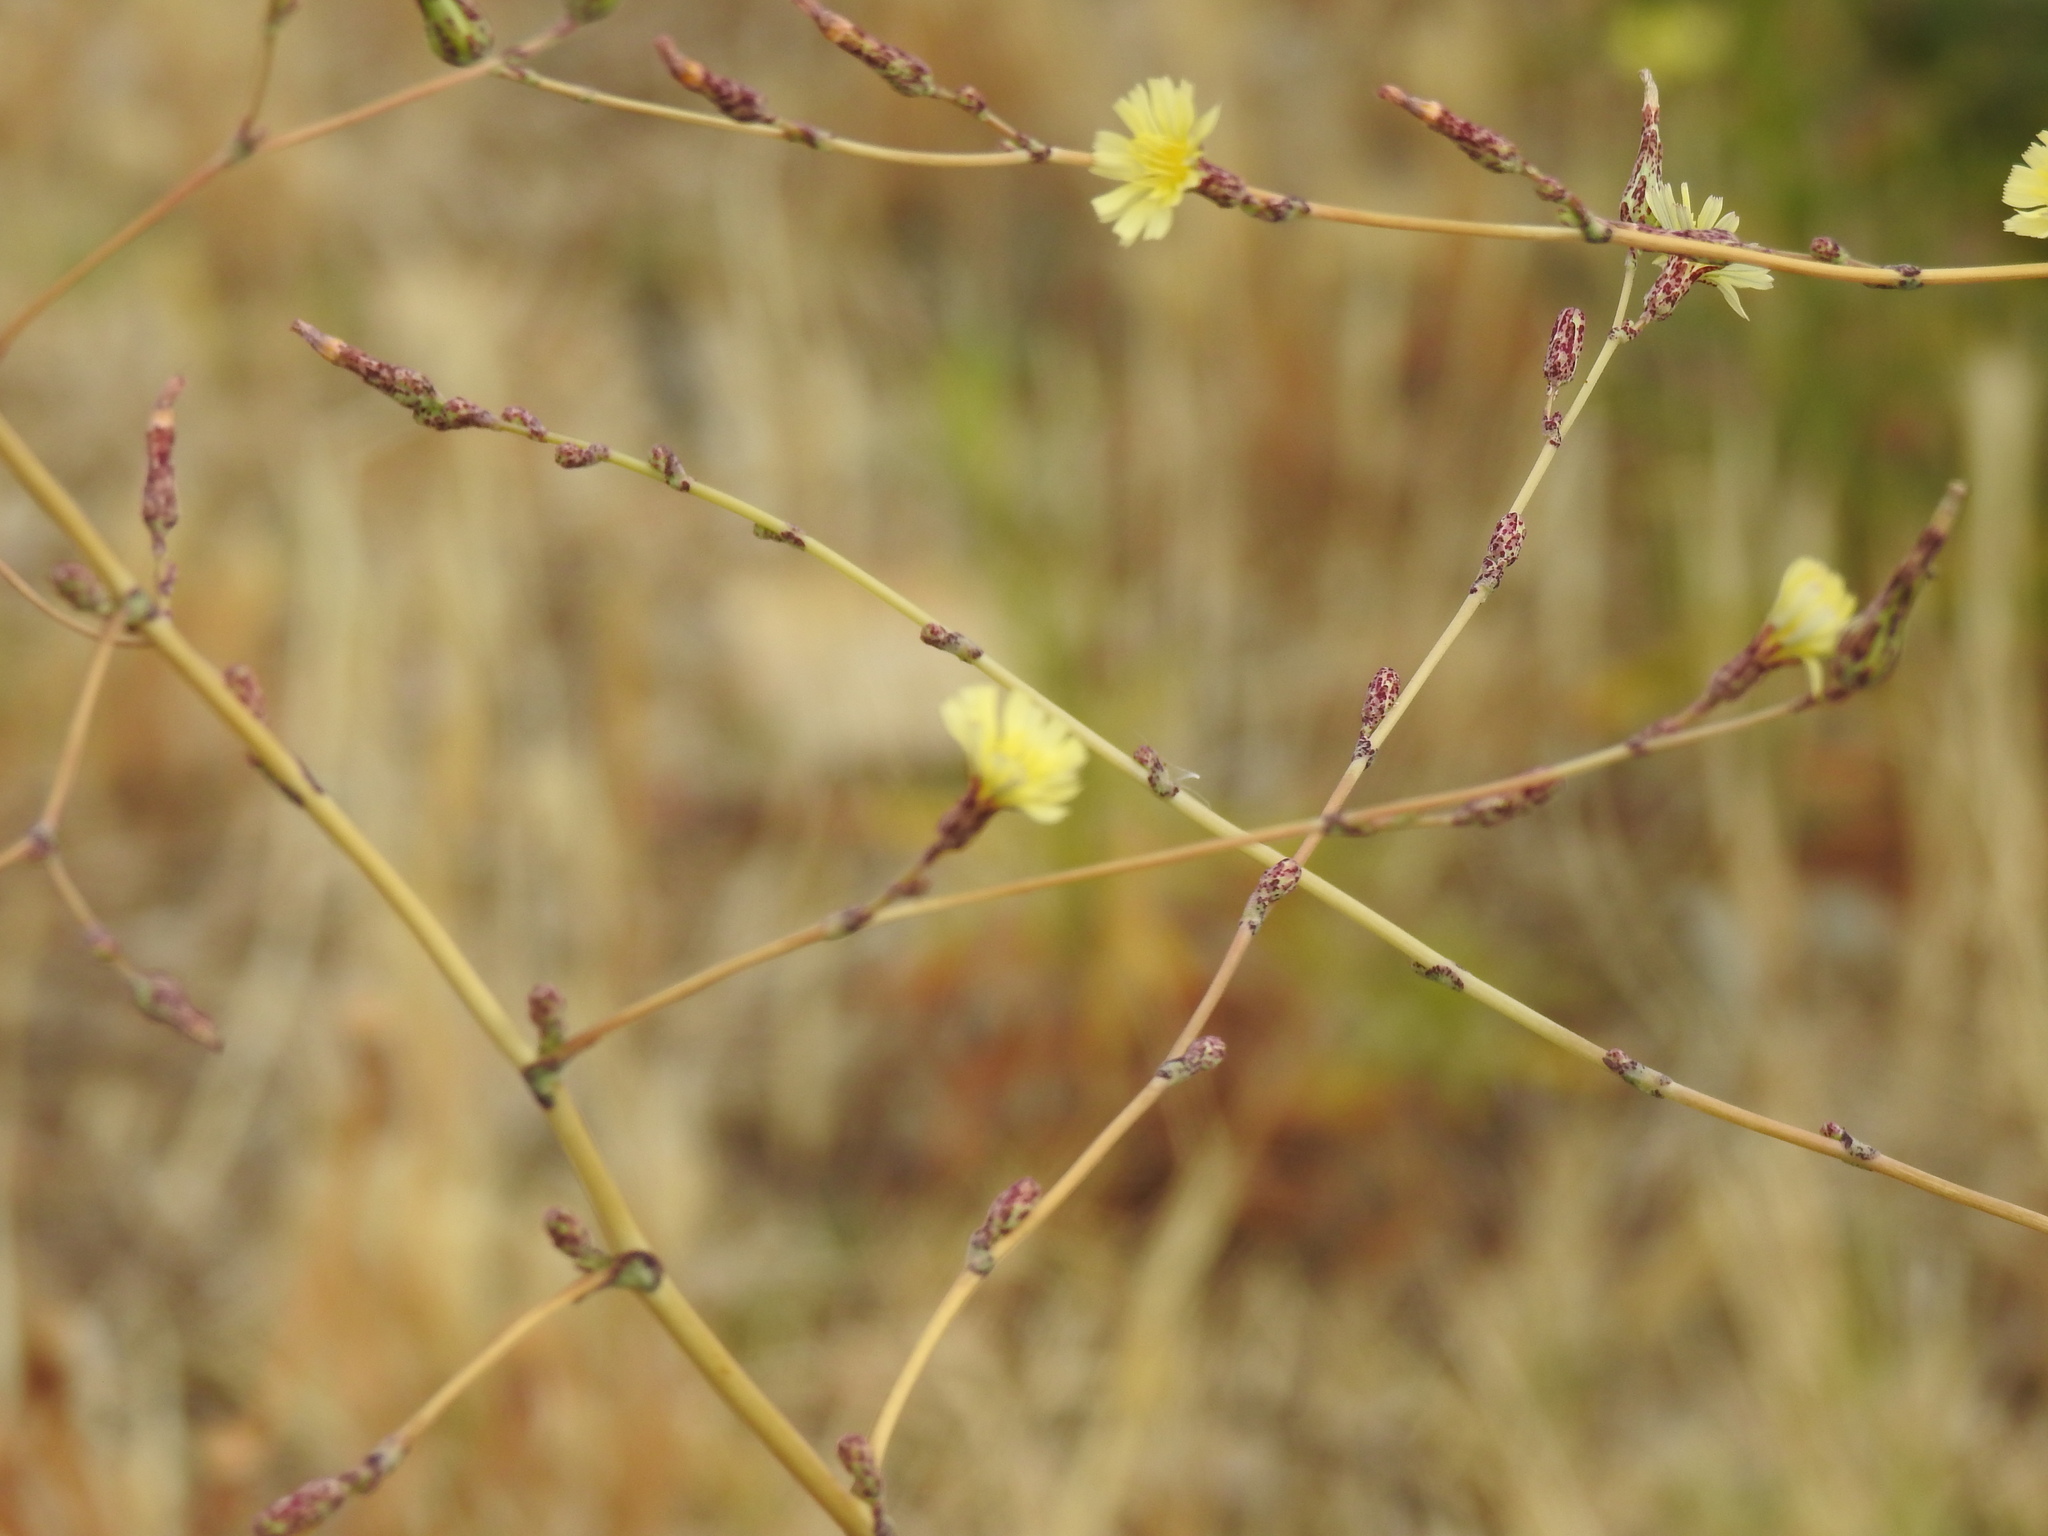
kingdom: Plantae
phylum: Tracheophyta
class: Magnoliopsida
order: Asterales
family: Asteraceae
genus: Lactuca
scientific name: Lactuca serriola
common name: Prickly lettuce
